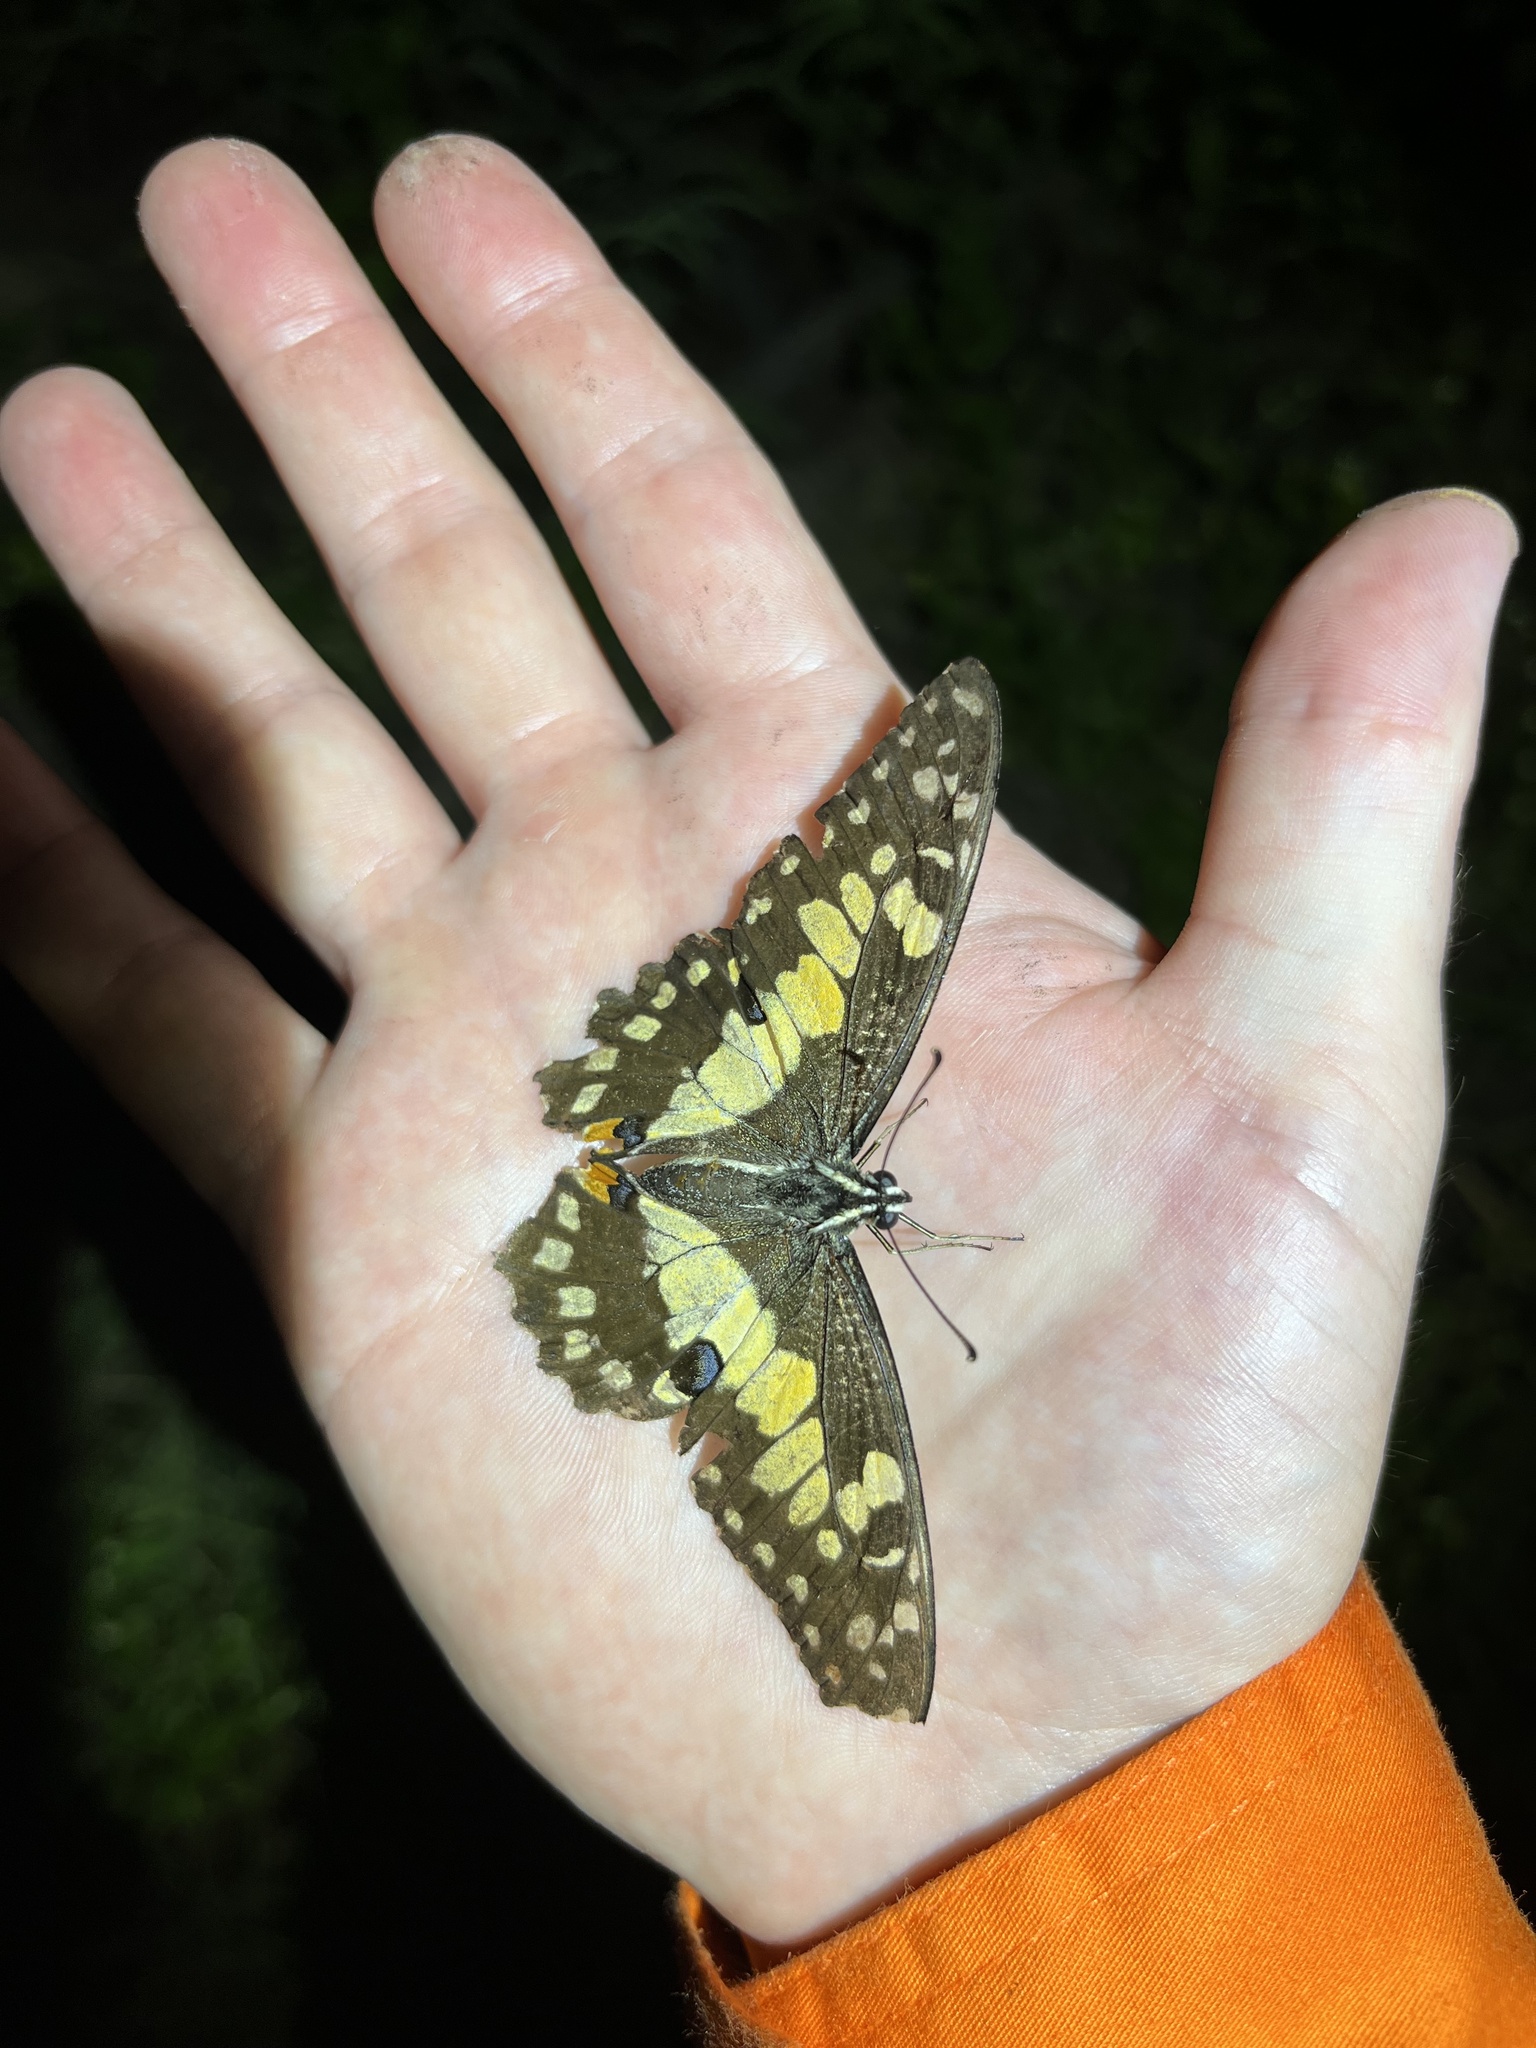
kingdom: Animalia
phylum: Arthropoda
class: Insecta
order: Lepidoptera
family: Papilionidae
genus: Papilio
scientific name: Papilio demoleus
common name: Lime butterfly
